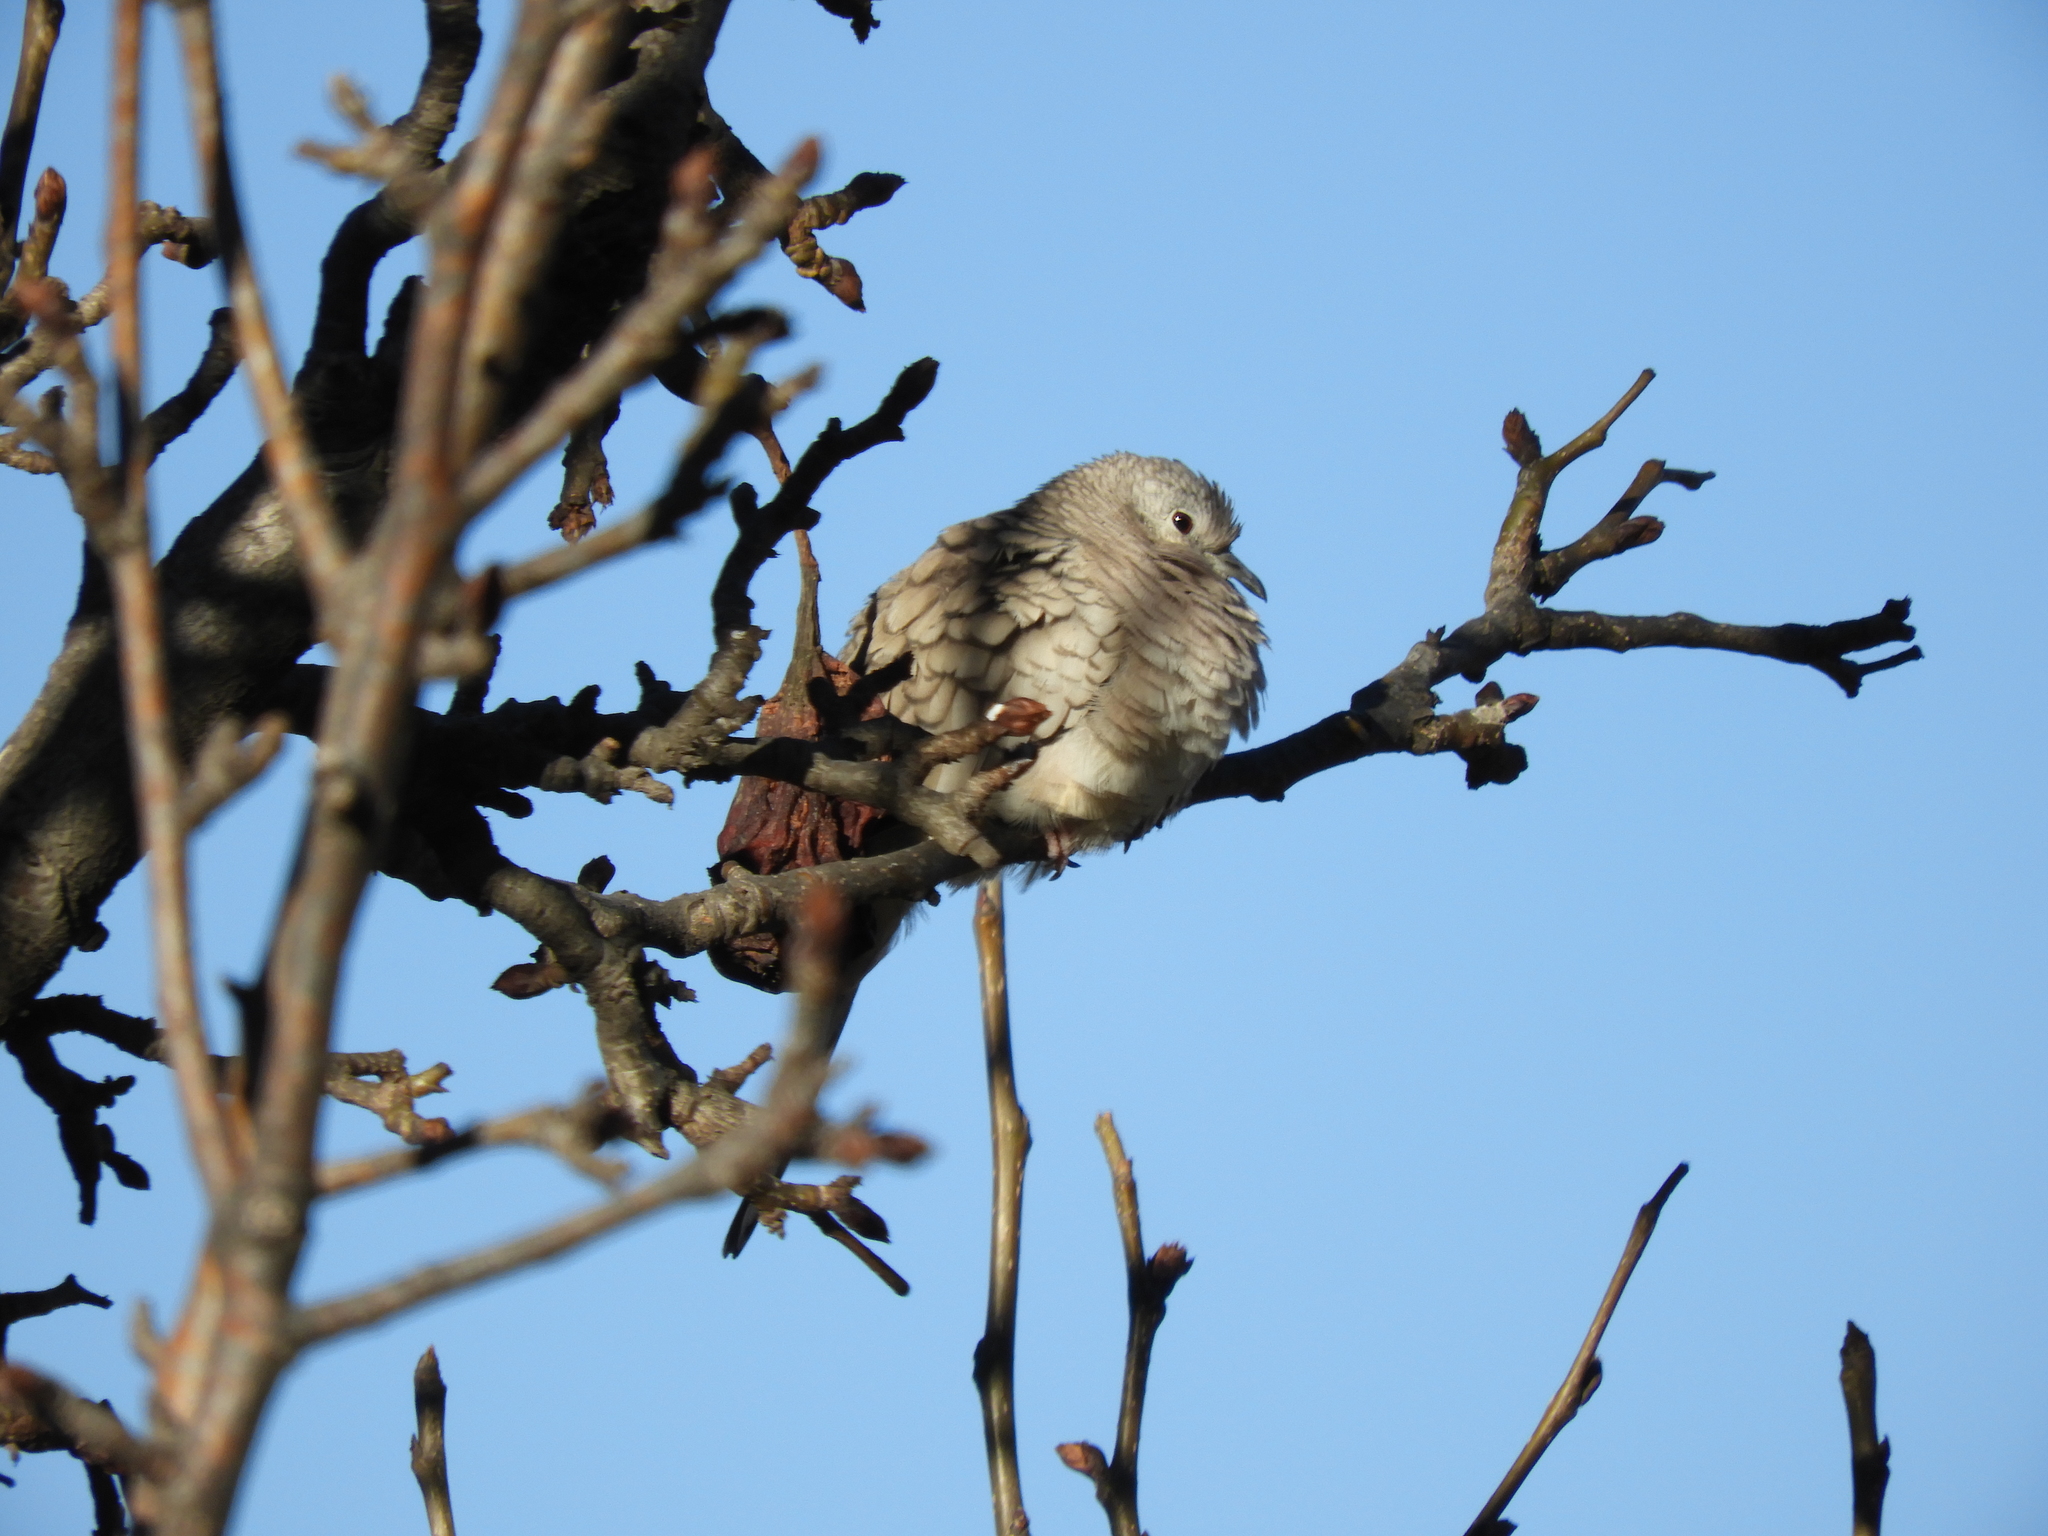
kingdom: Animalia
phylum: Chordata
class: Aves
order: Columbiformes
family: Columbidae
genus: Columbina
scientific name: Columbina inca
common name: Inca dove
